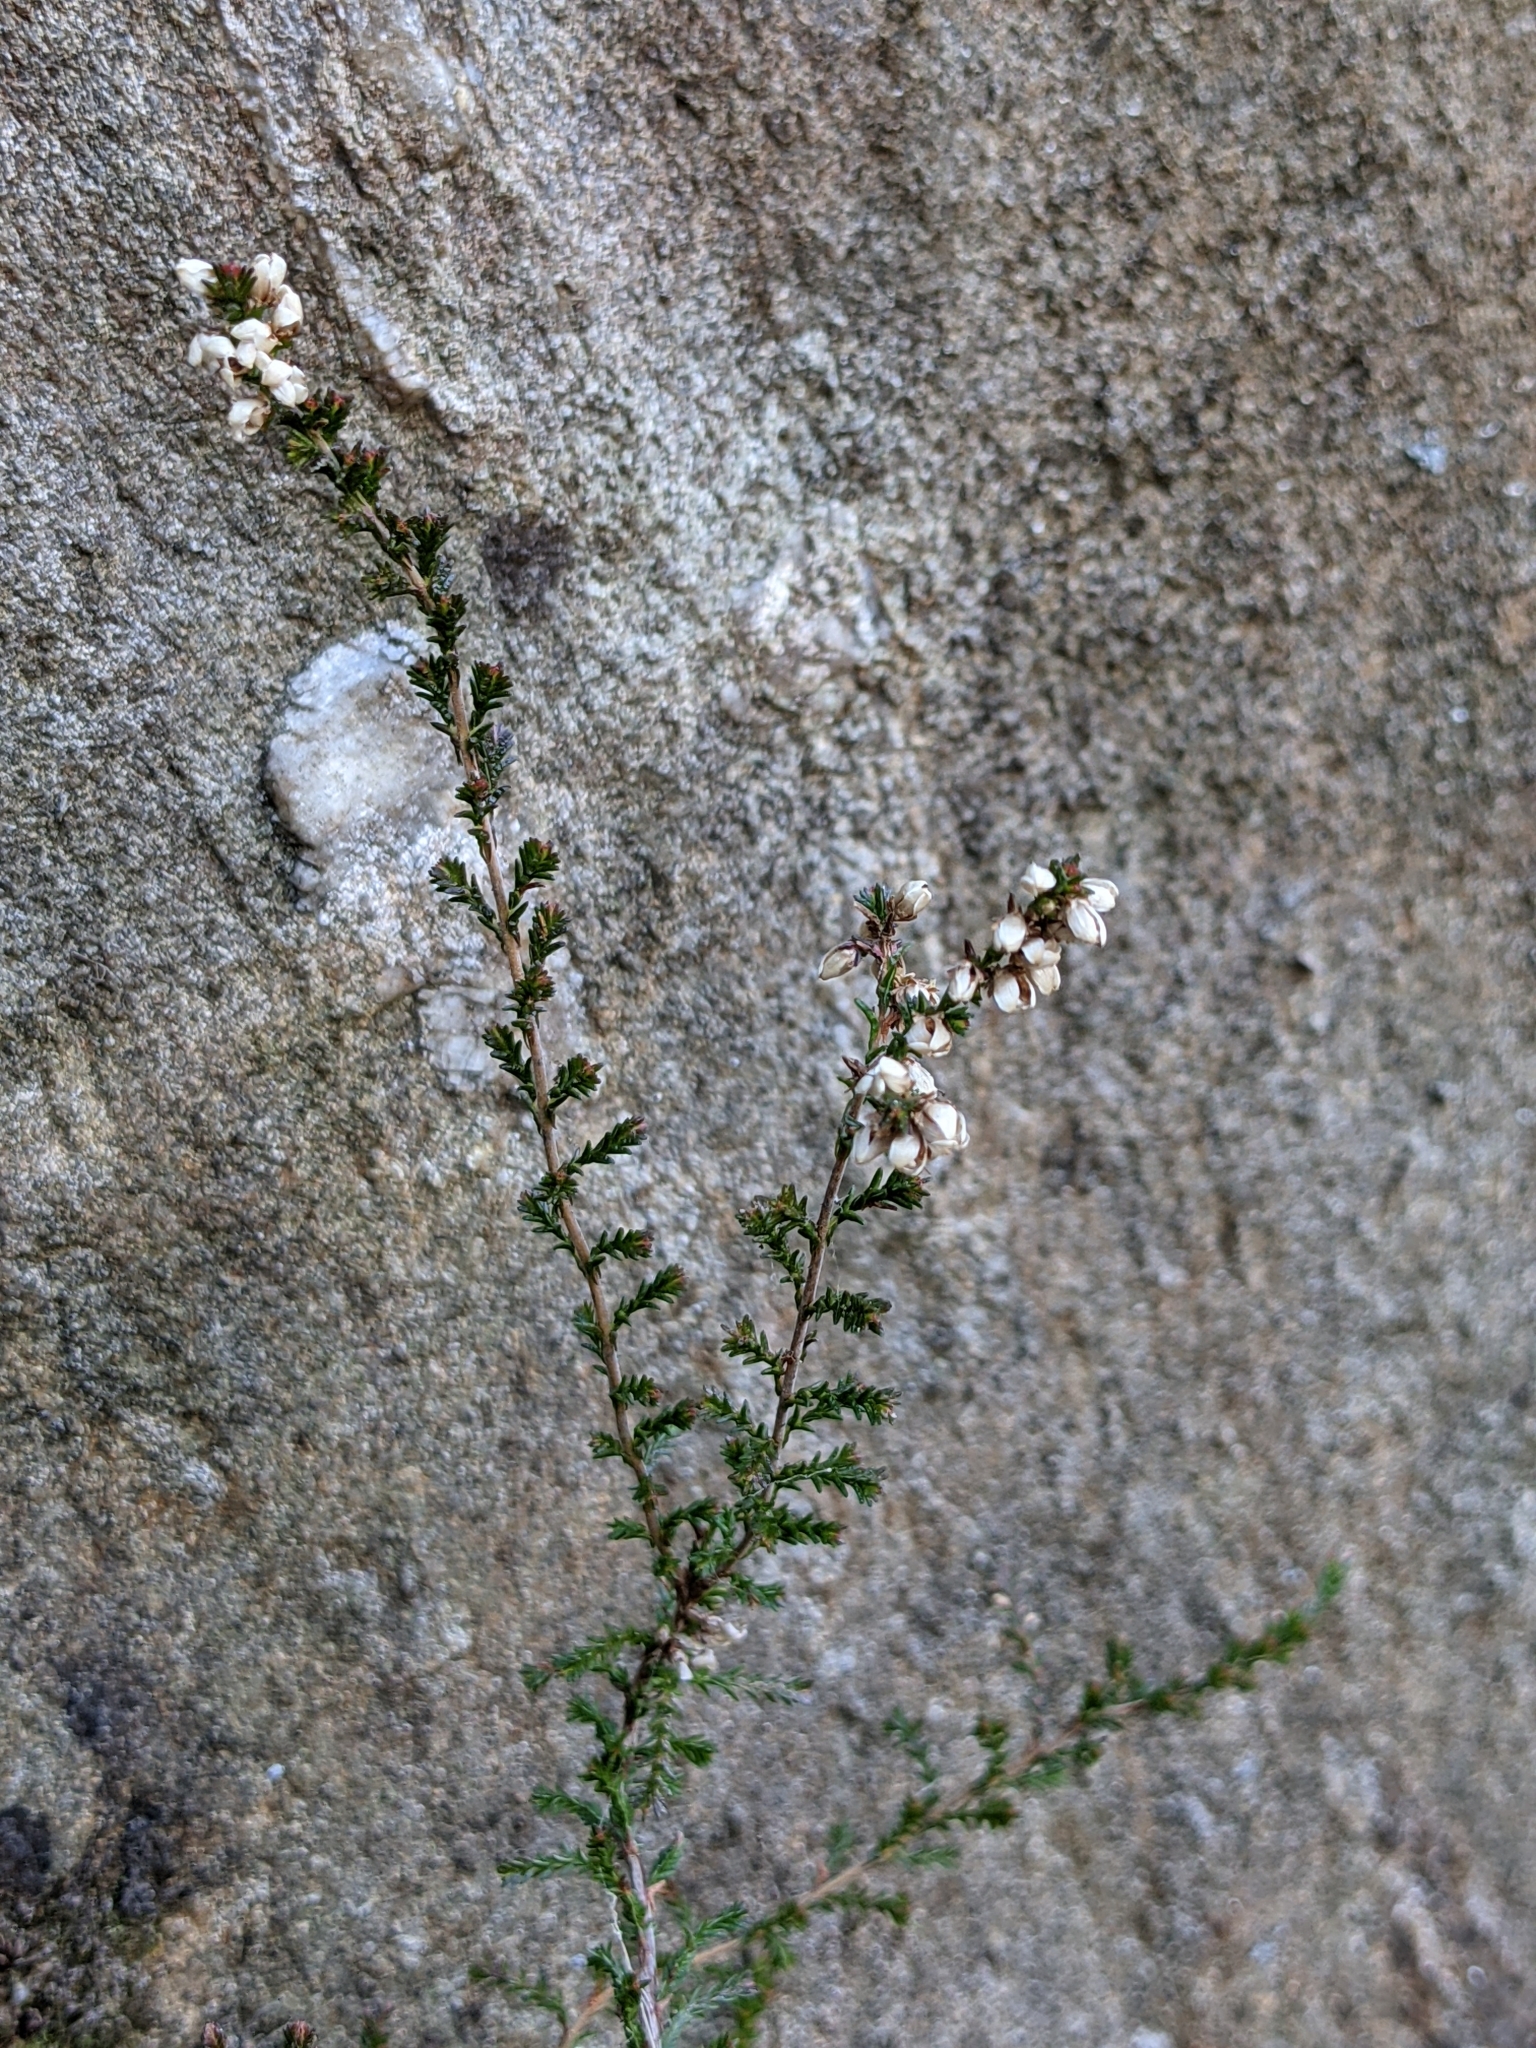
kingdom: Plantae
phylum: Tracheophyta
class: Magnoliopsida
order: Ericales
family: Ericaceae
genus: Calluna
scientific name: Calluna vulgaris
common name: Heather
